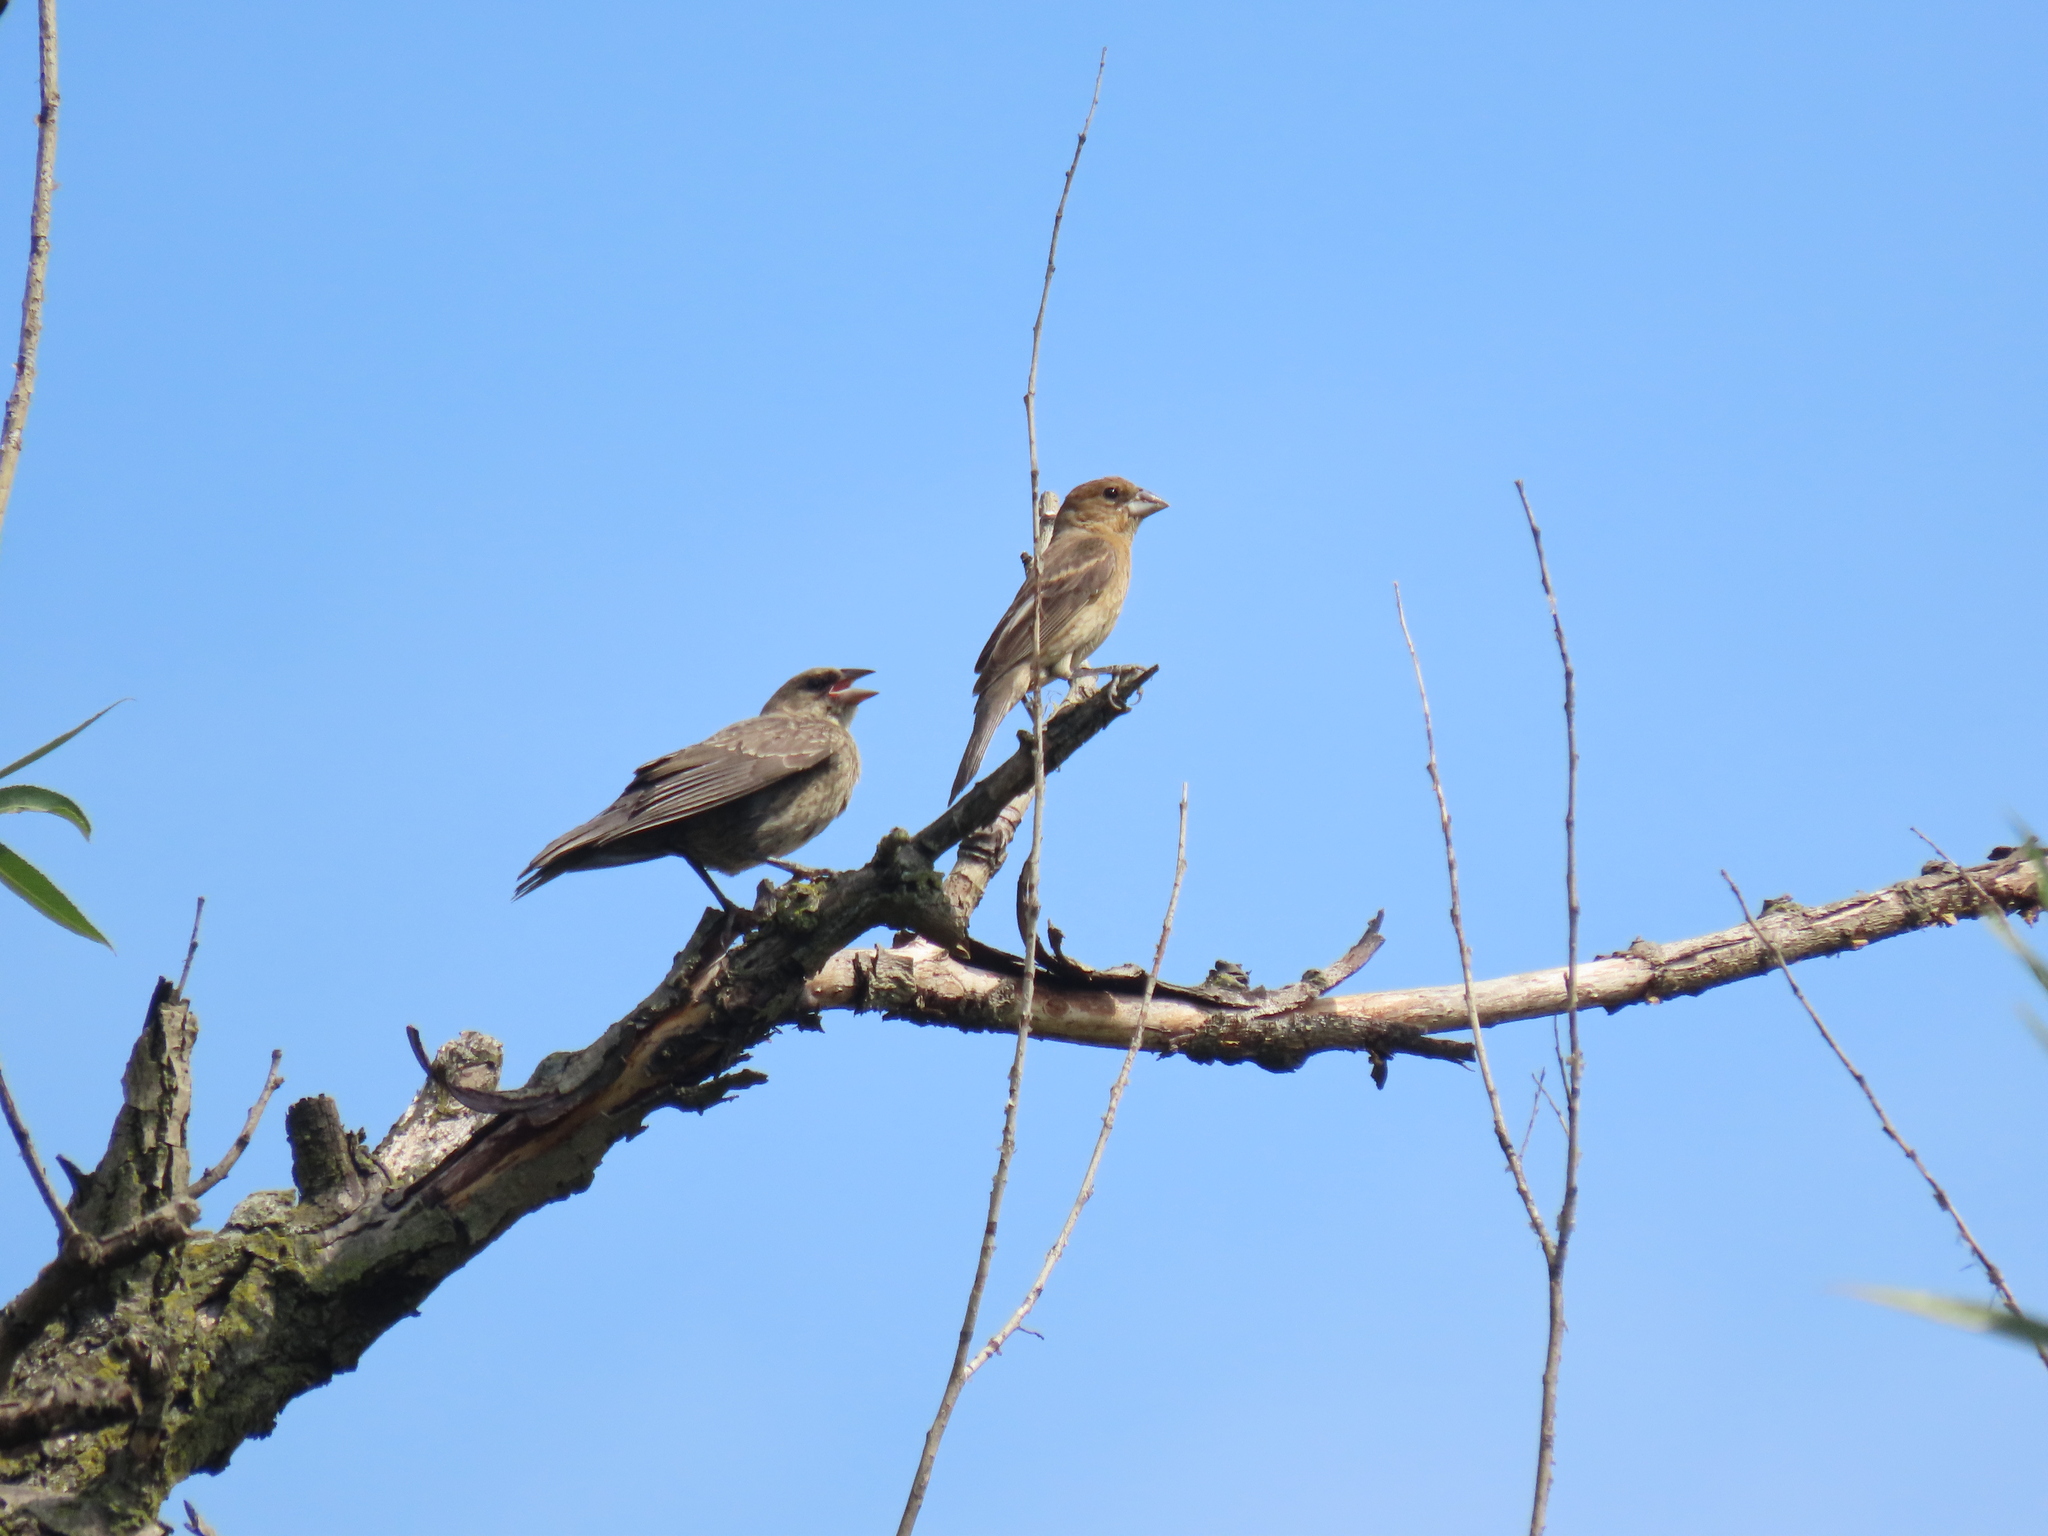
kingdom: Animalia
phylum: Chordata
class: Aves
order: Passeriformes
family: Icteridae
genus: Molothrus
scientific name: Molothrus ater
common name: Brown-headed cowbird
